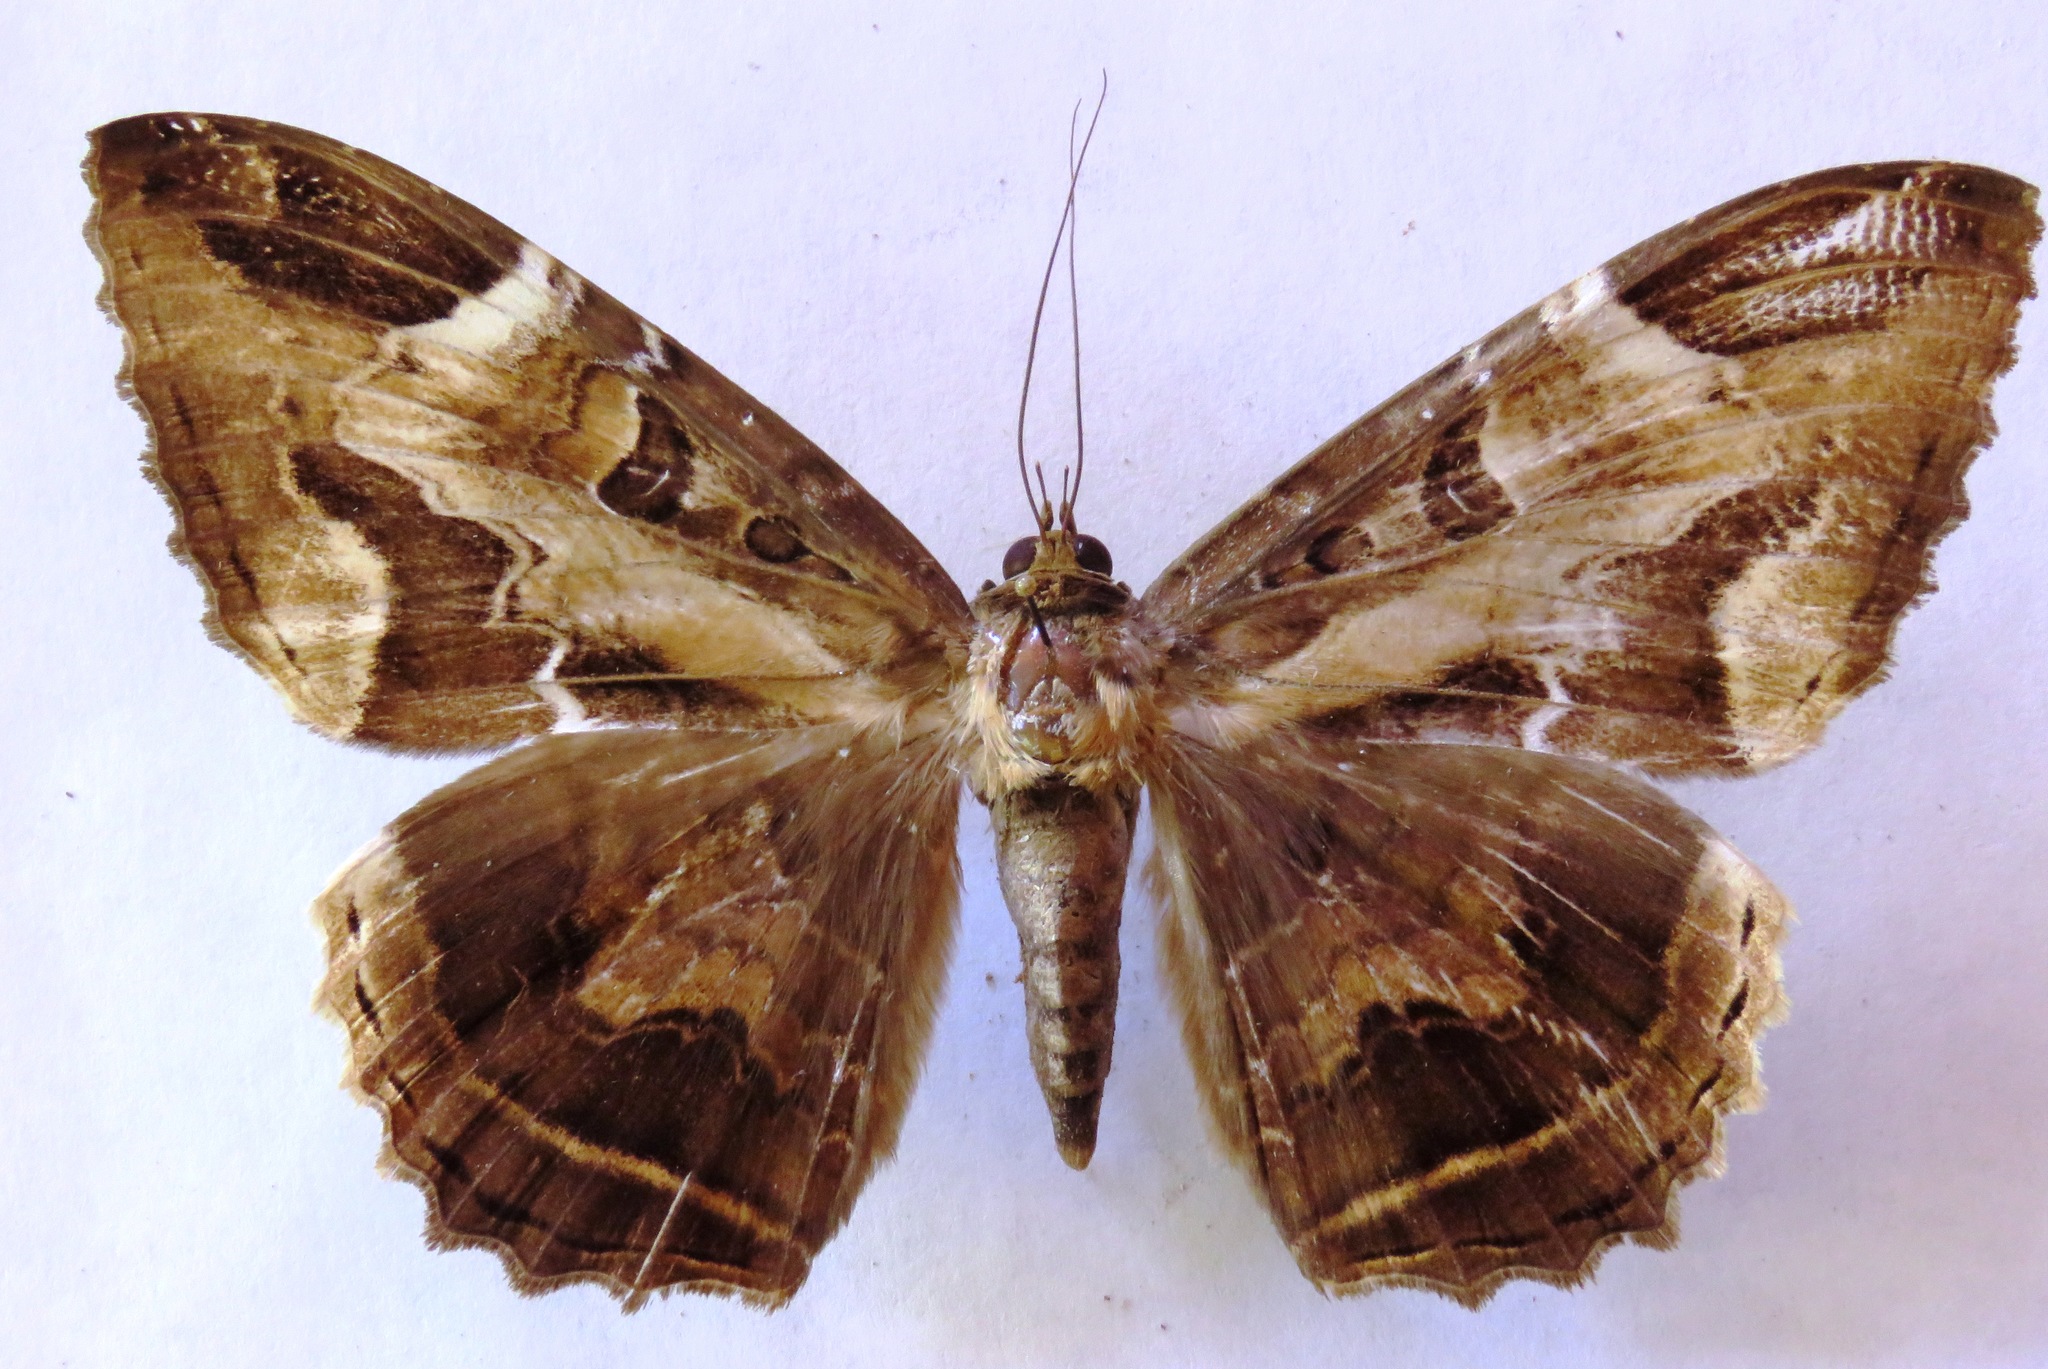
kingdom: Animalia
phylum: Arthropoda
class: Insecta
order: Lepidoptera
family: Erebidae
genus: Feigeria
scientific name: Feigeria herilia
